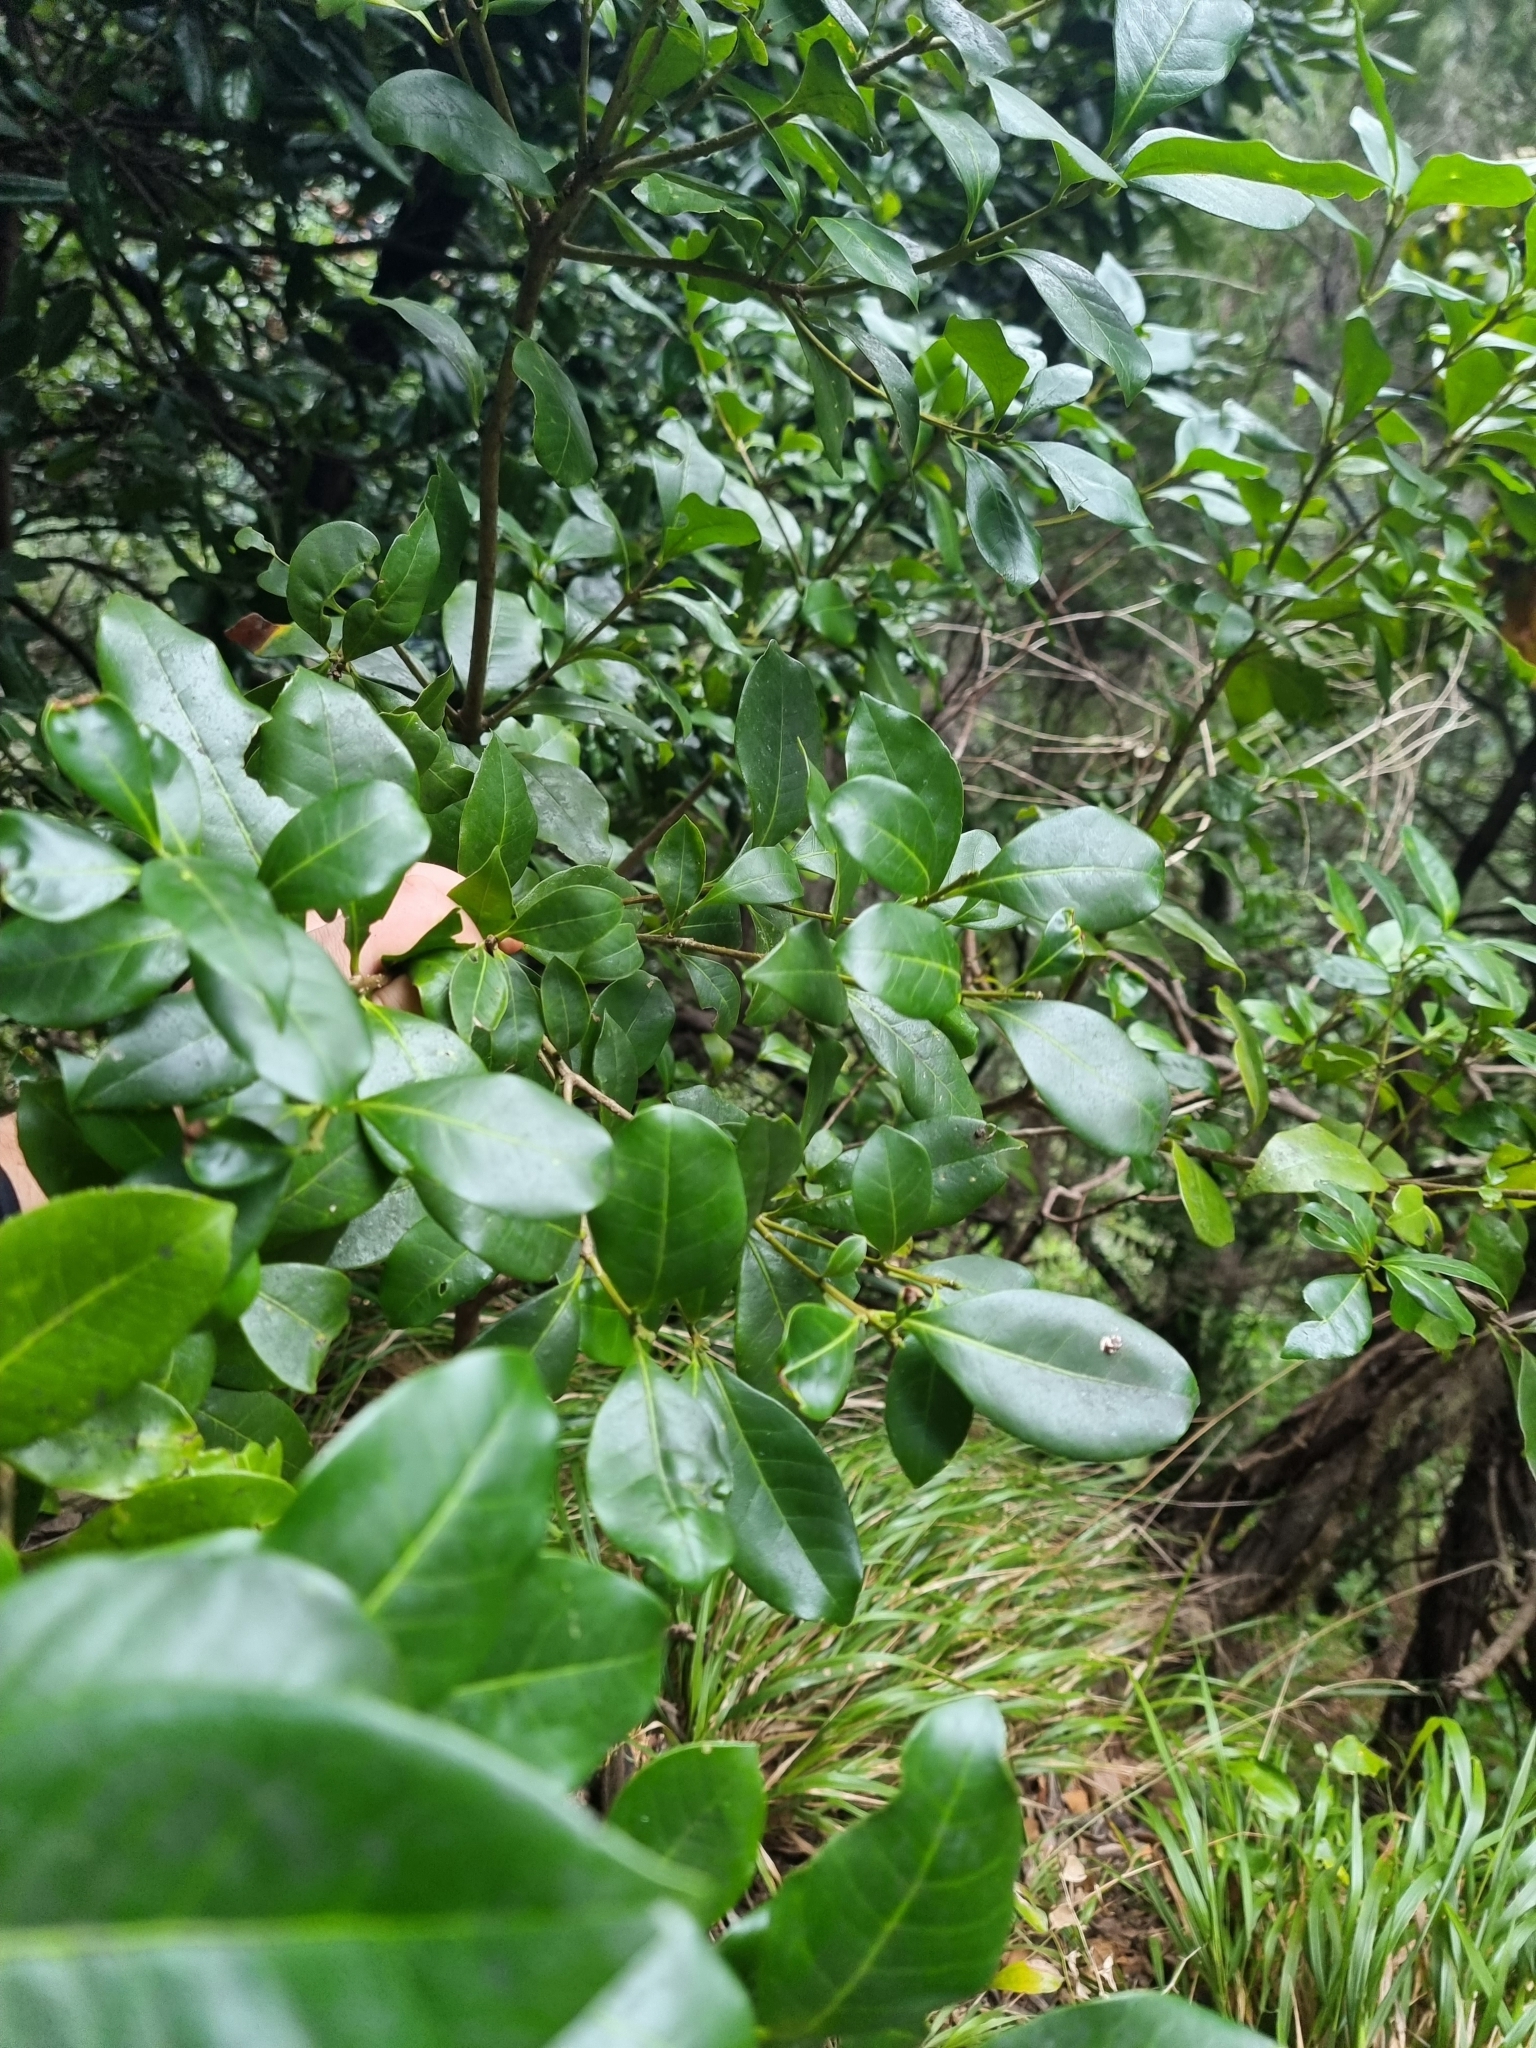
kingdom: Plantae
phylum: Tracheophyta
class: Magnoliopsida
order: Lamiales
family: Oleaceae
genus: Picconia
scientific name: Picconia excelsa
